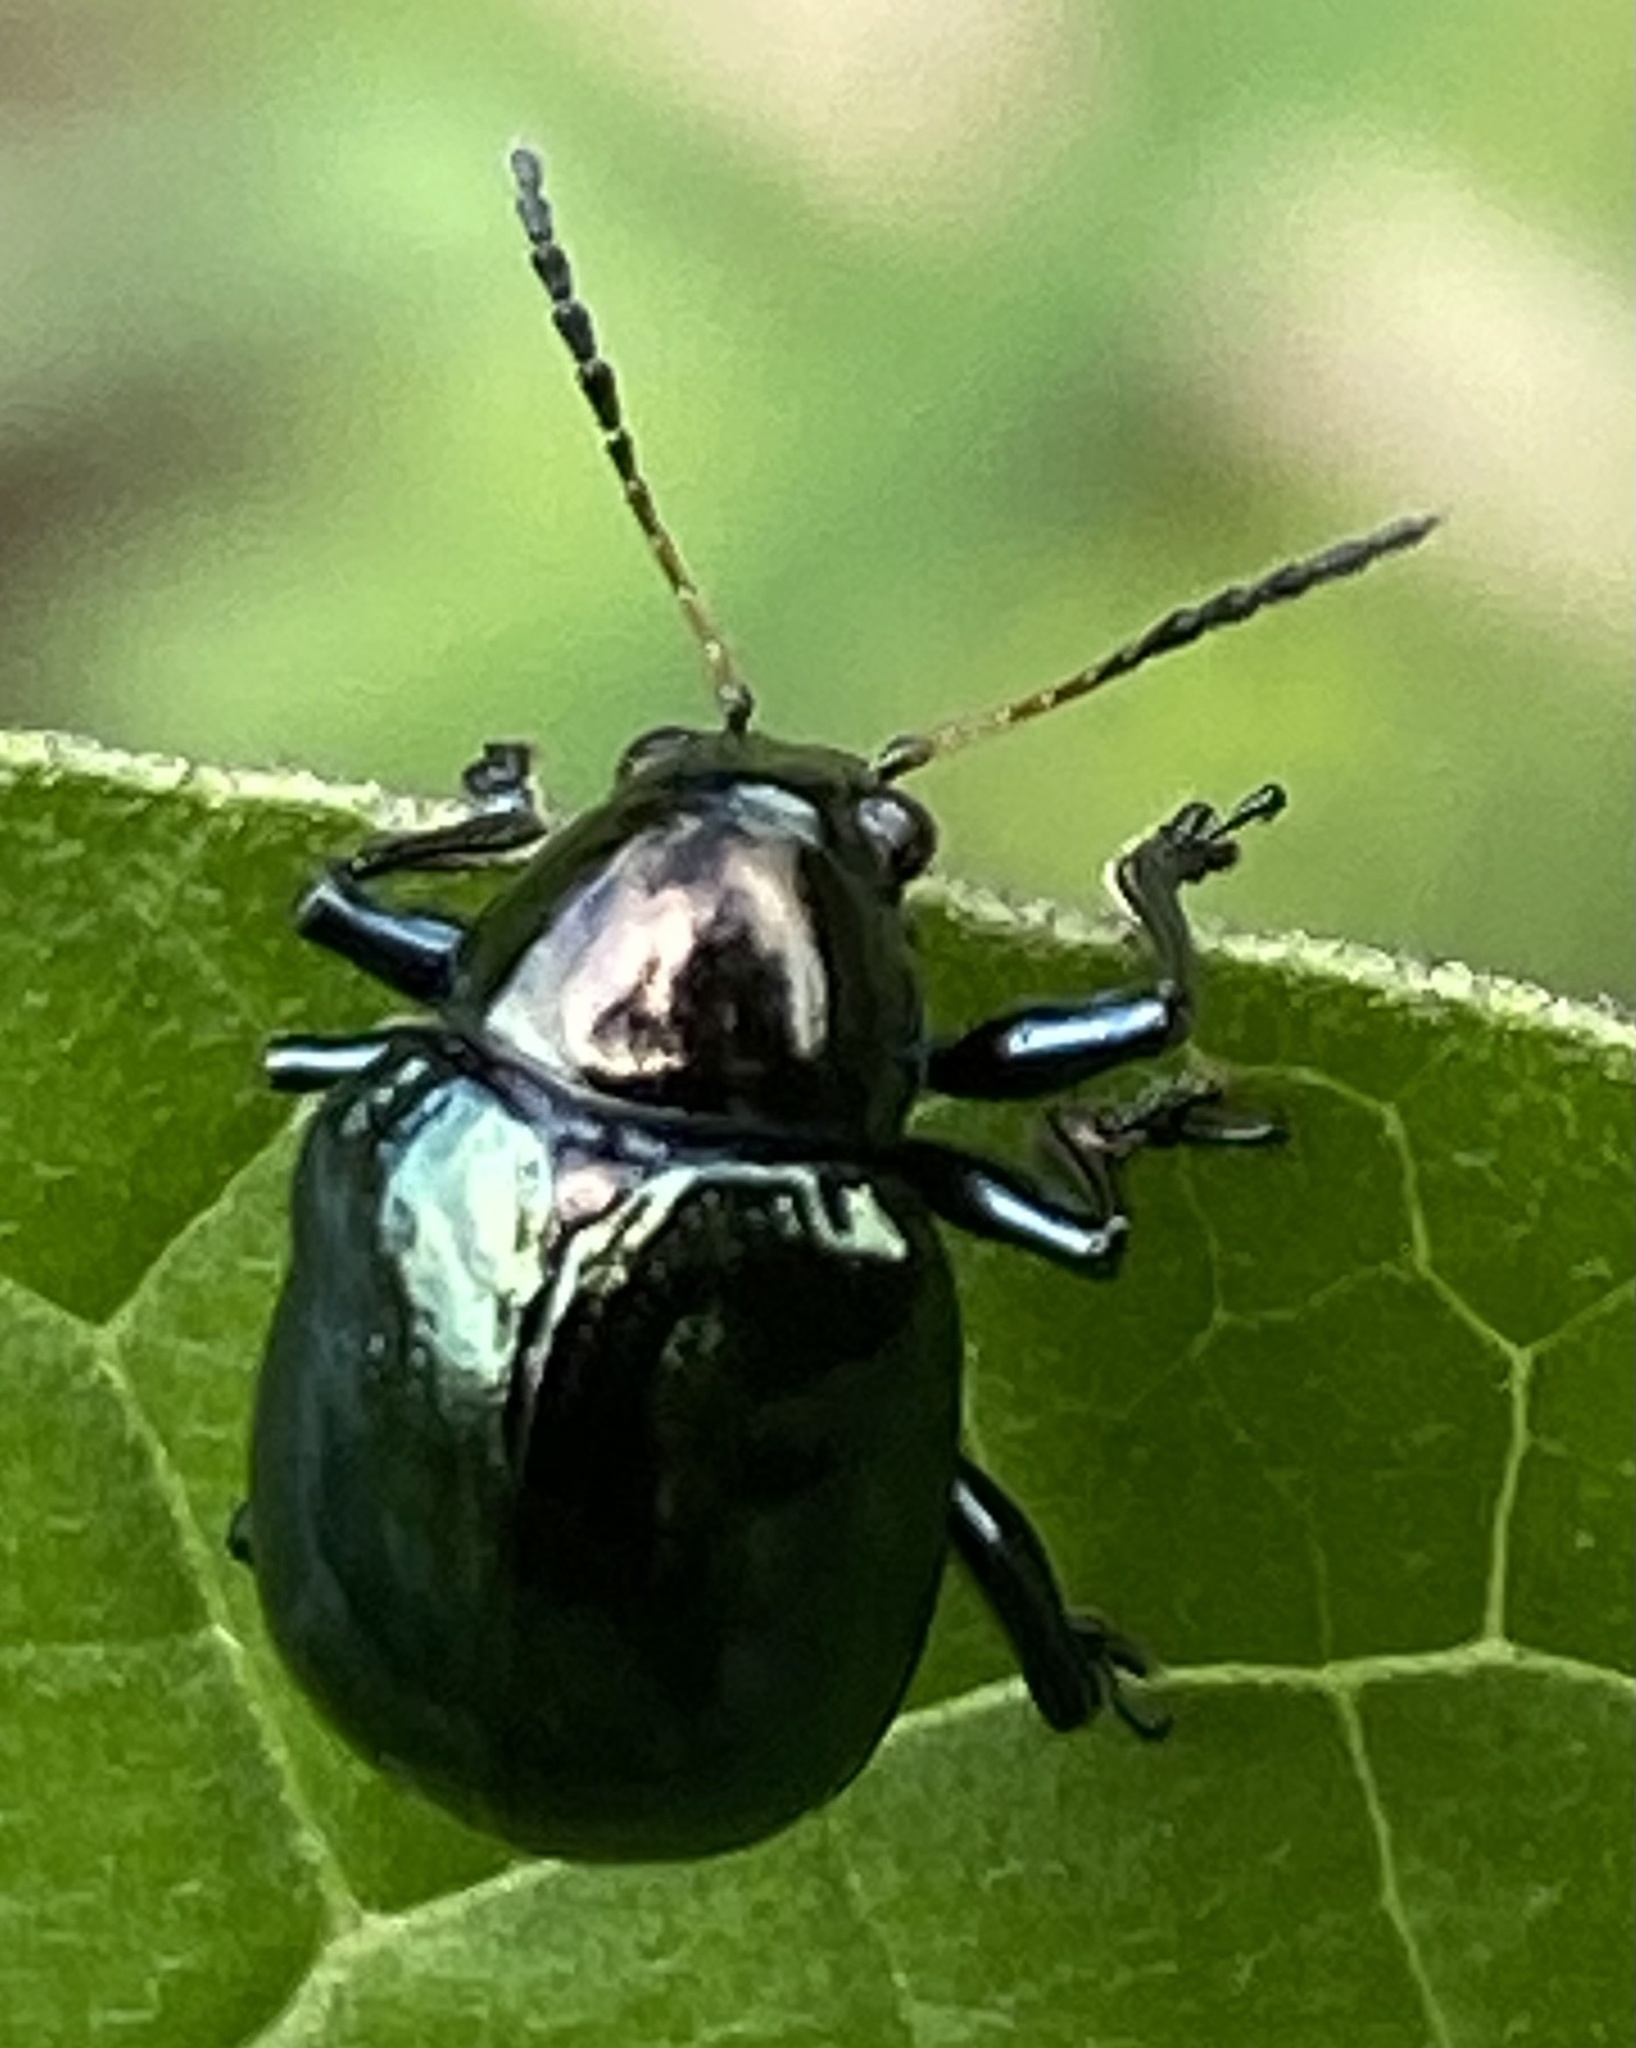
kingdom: Animalia
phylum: Arthropoda
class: Insecta
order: Coleoptera
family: Chrysomelidae
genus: Typophorus
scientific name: Typophorus nigritus
